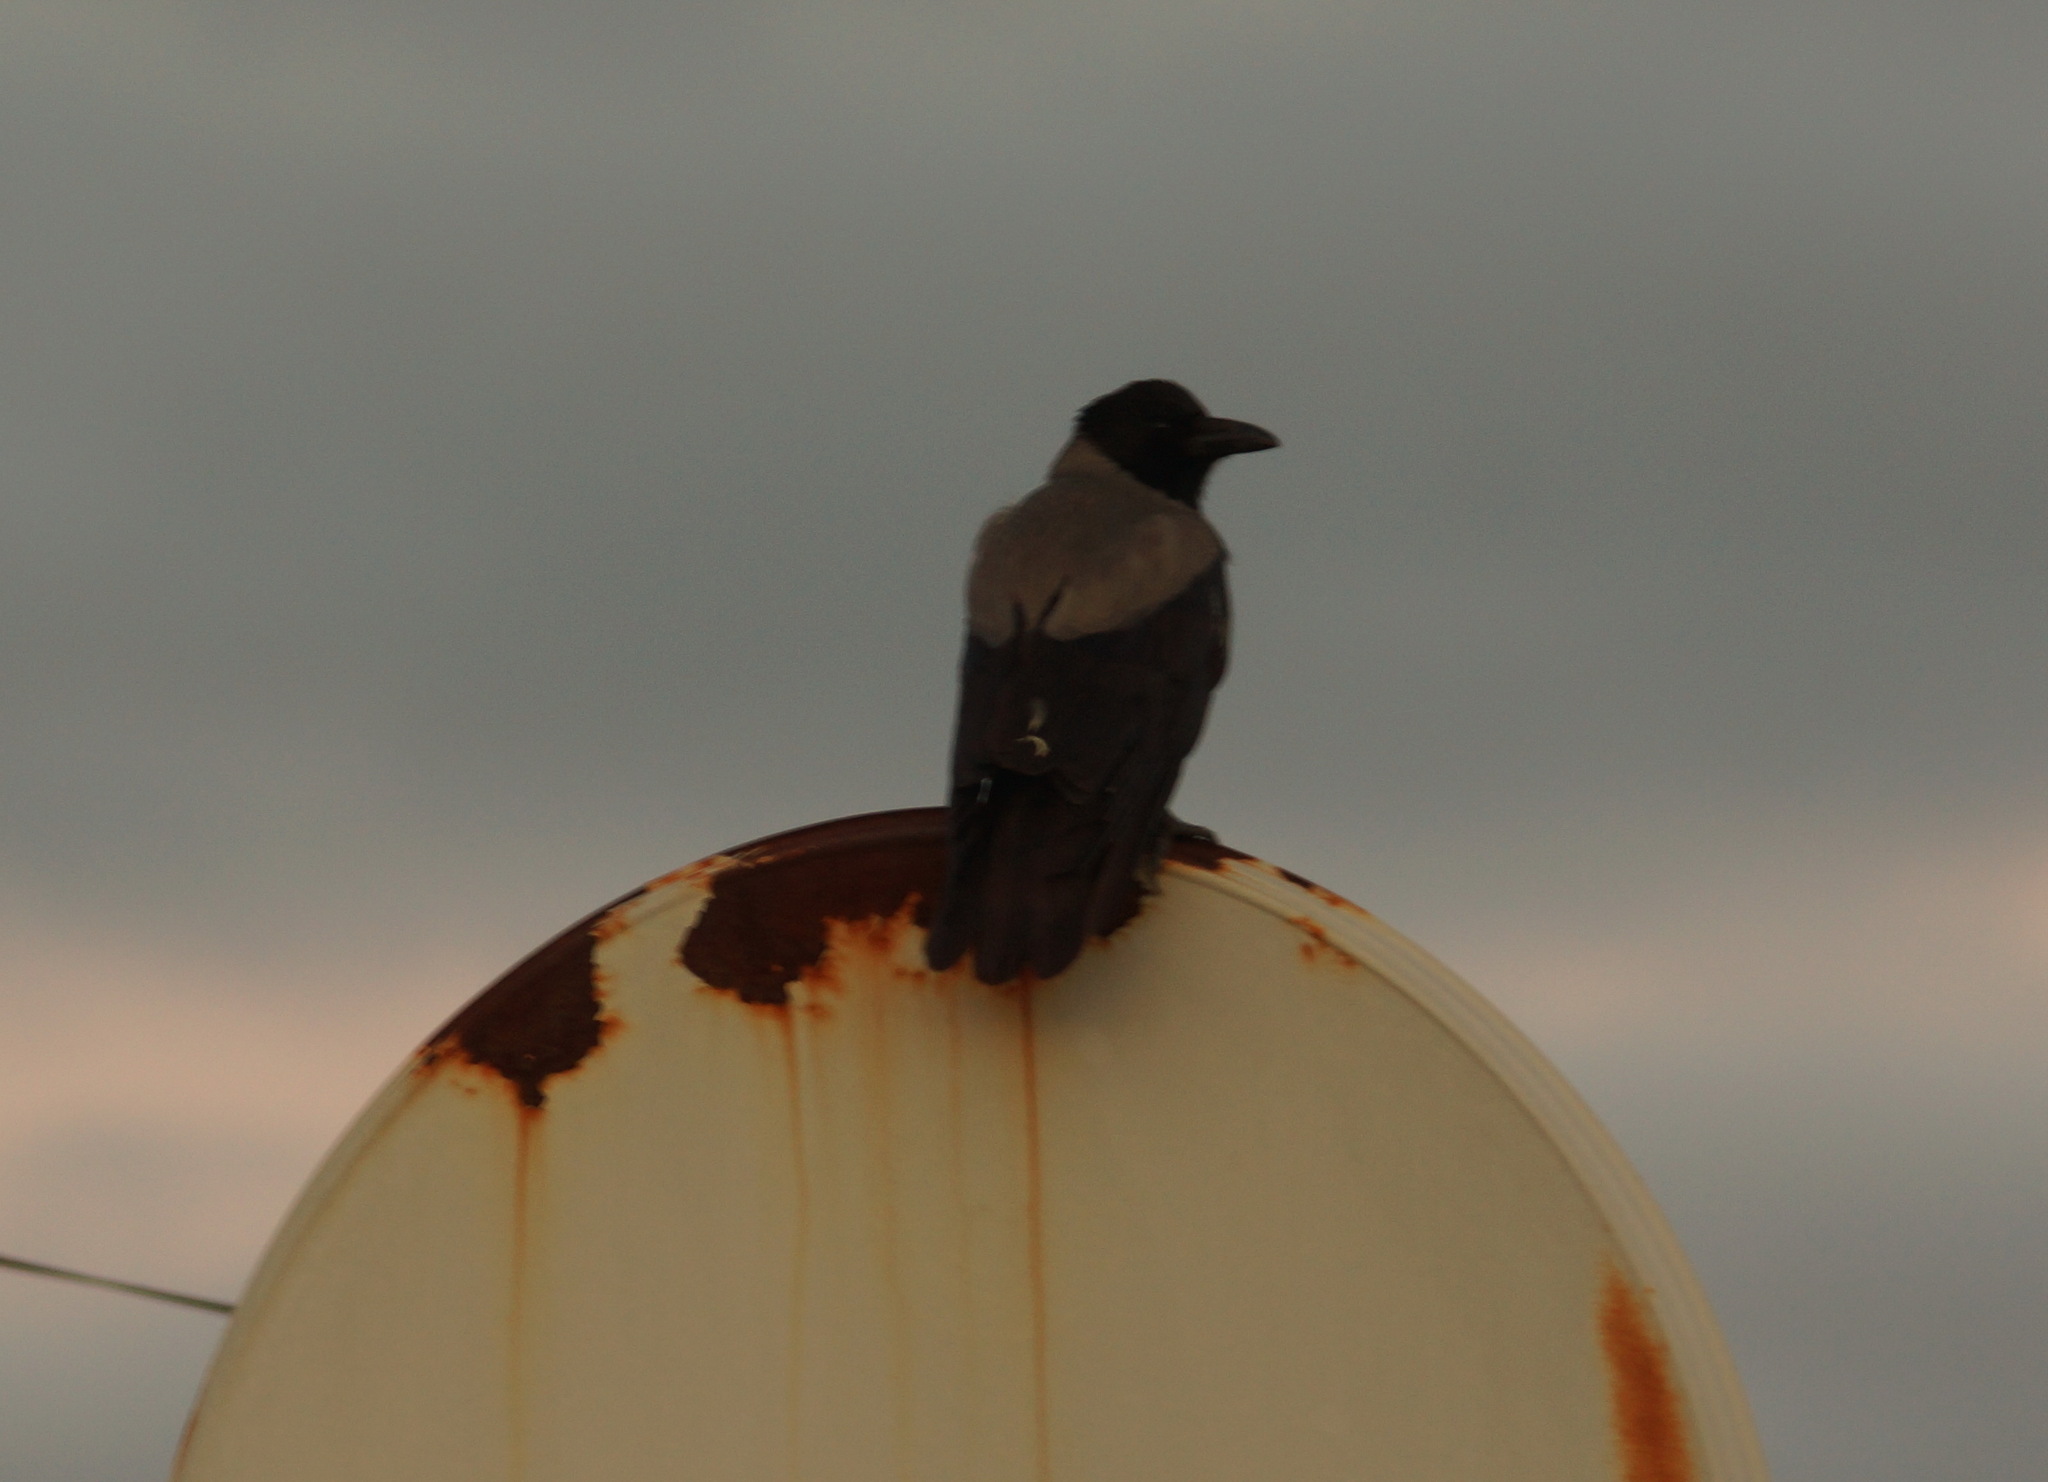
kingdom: Animalia
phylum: Chordata
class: Aves
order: Passeriformes
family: Corvidae
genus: Corvus
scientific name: Corvus cornix
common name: Hooded crow
